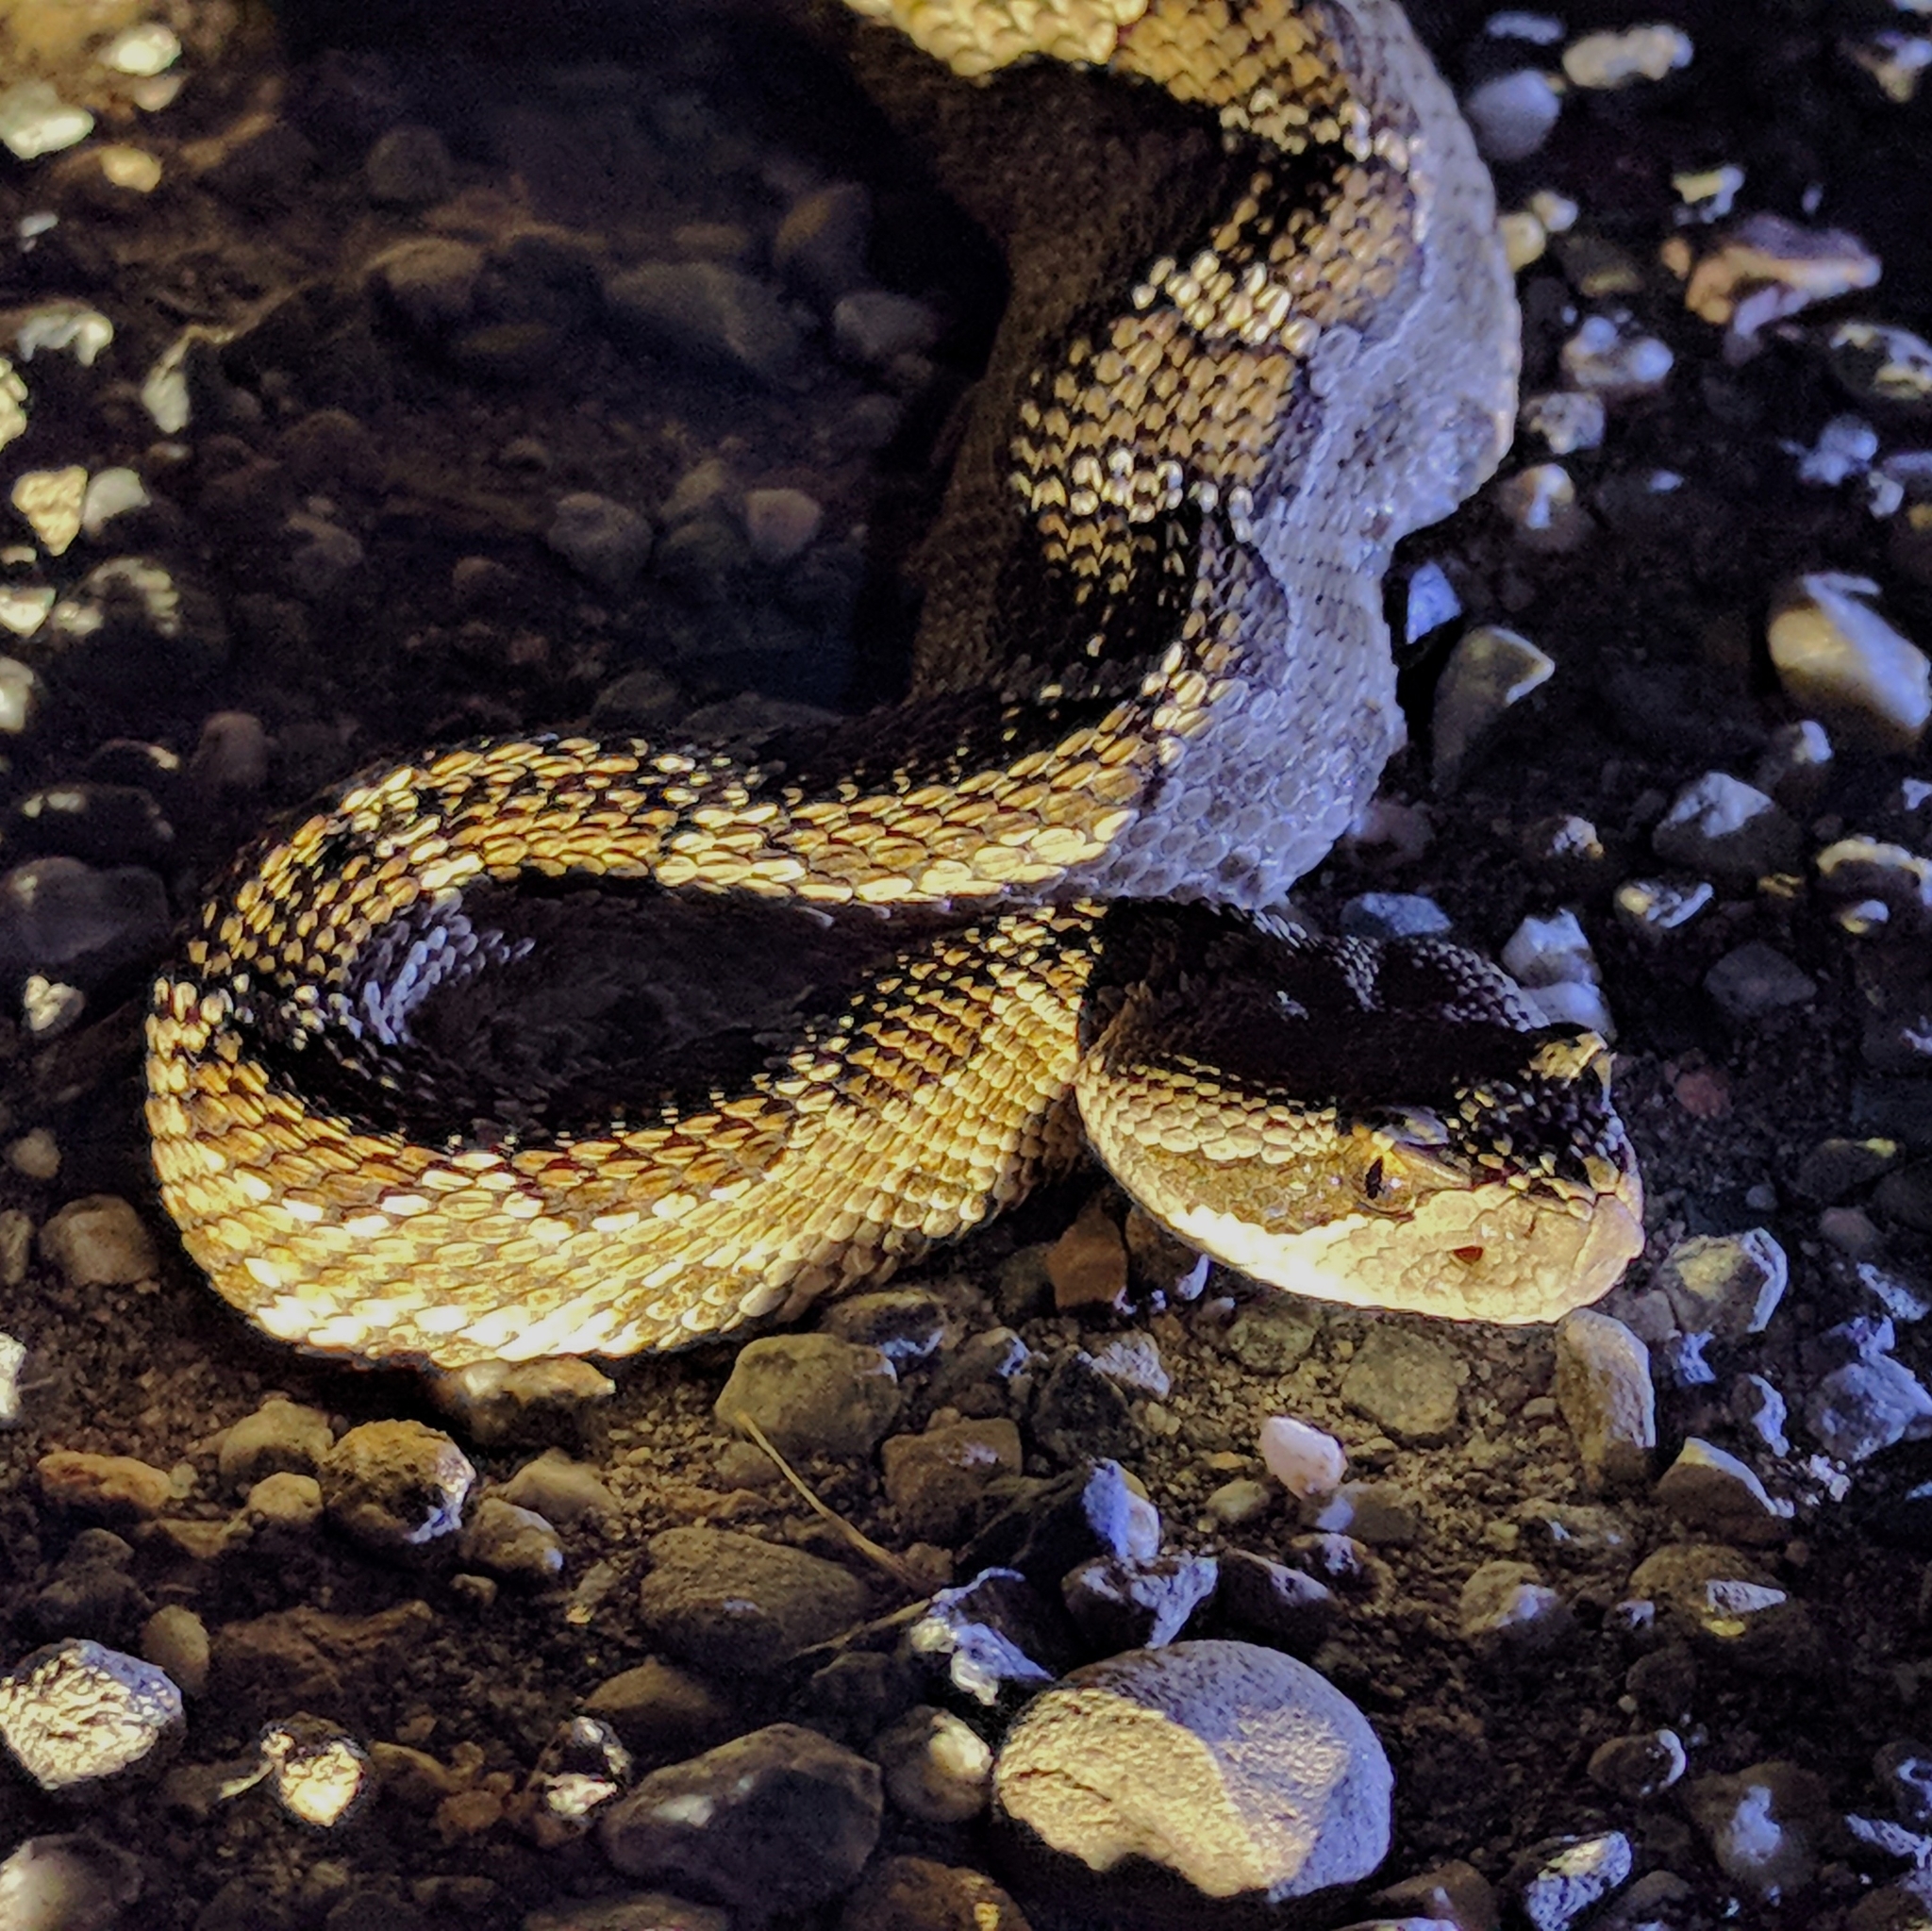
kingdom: Animalia
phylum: Chordata
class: Squamata
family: Viperidae
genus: Crotalus
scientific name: Crotalus oreganus
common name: Abyssus
